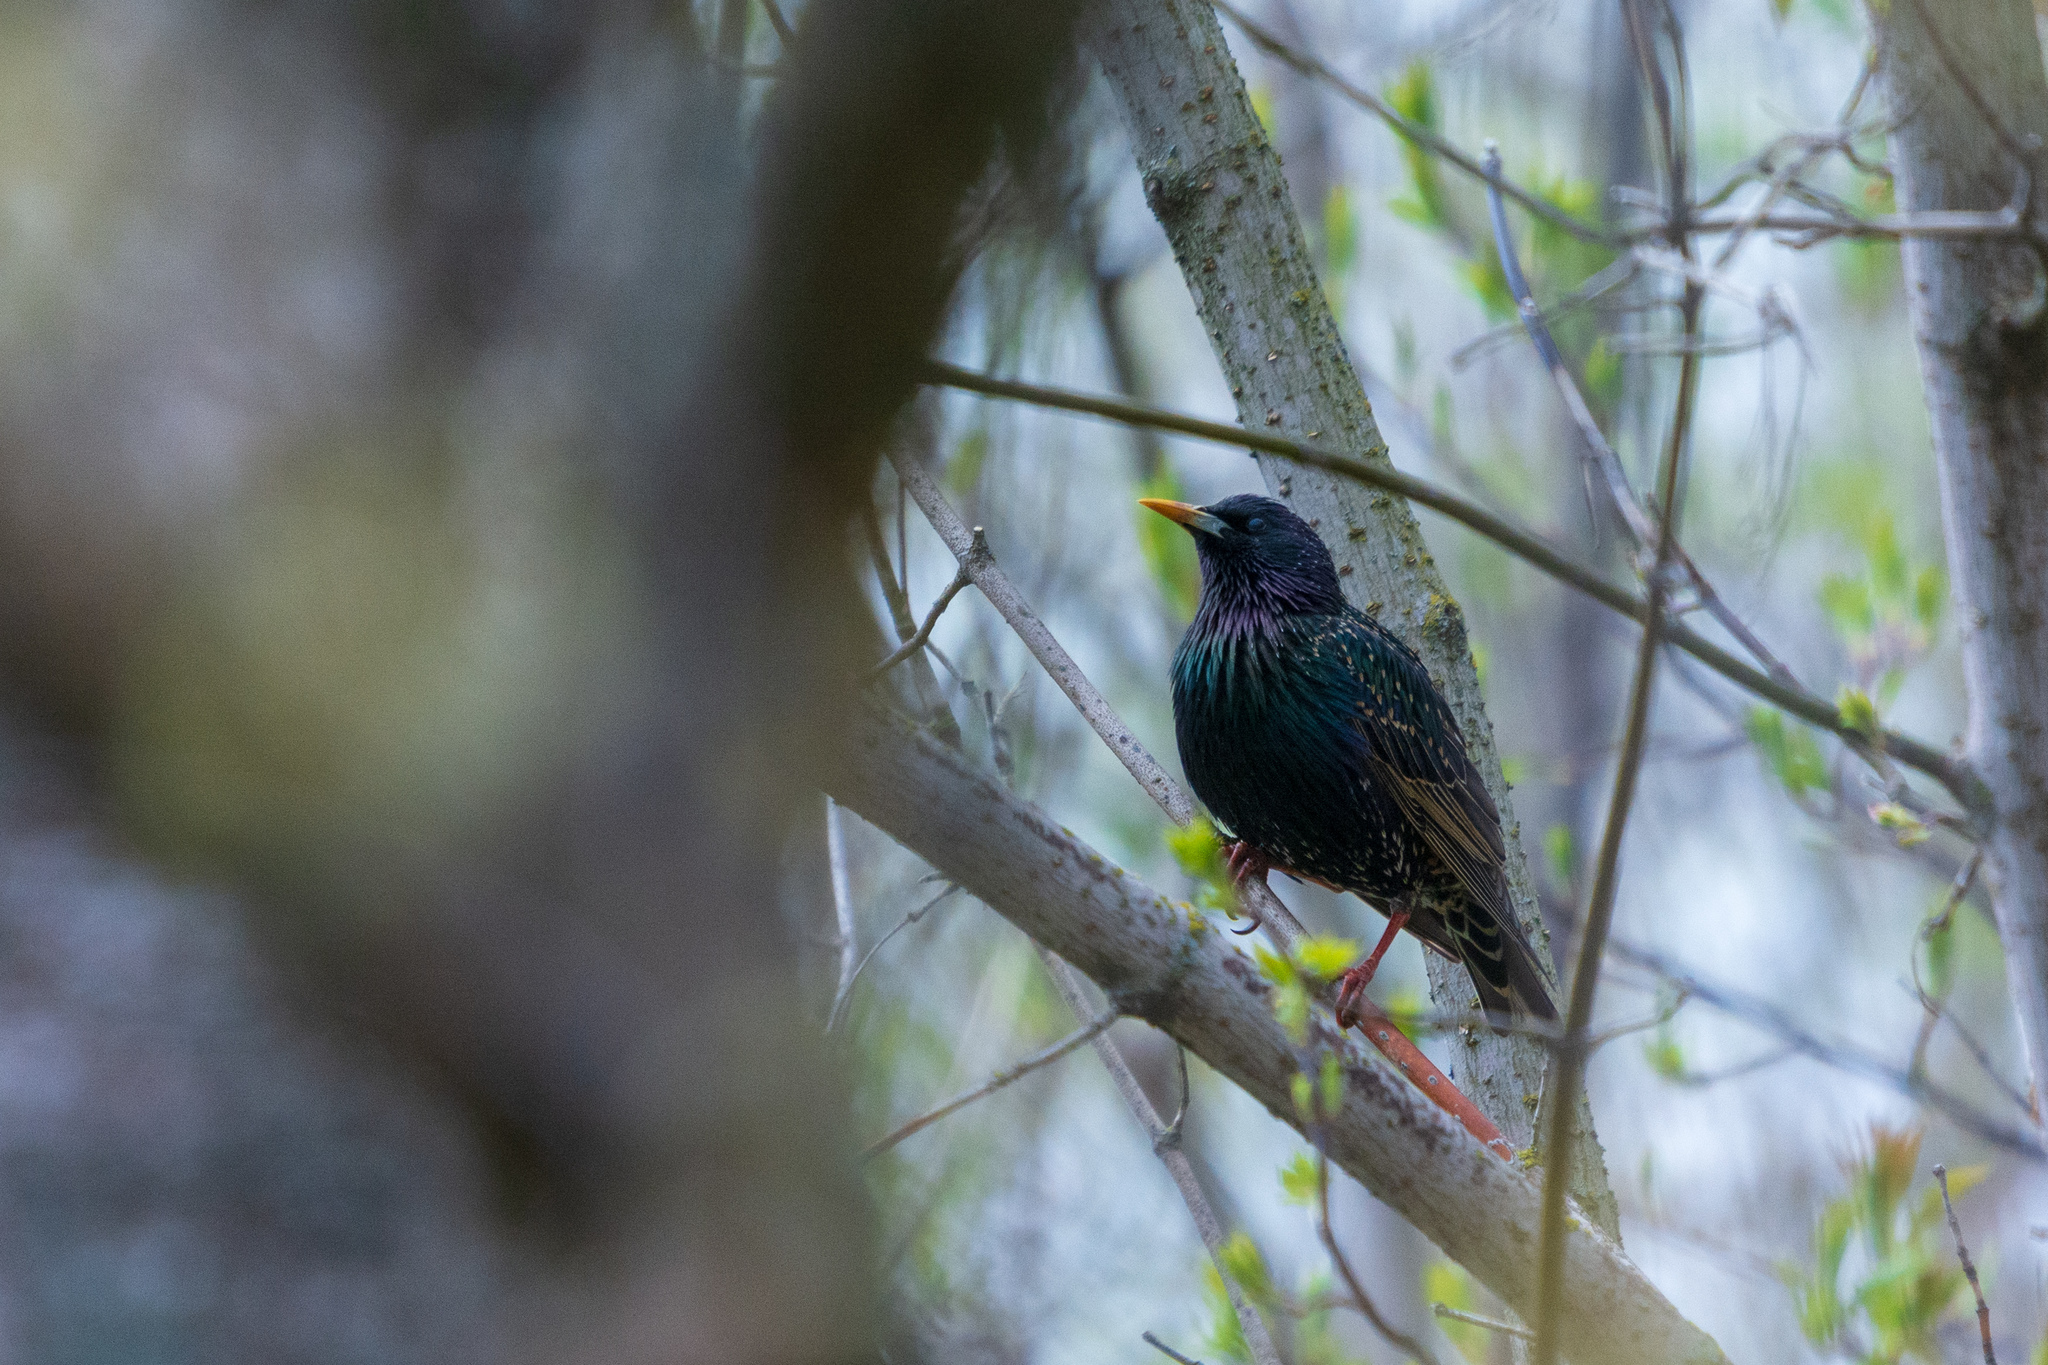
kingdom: Animalia
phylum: Chordata
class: Aves
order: Passeriformes
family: Sturnidae
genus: Sturnus
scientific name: Sturnus vulgaris
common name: Common starling
